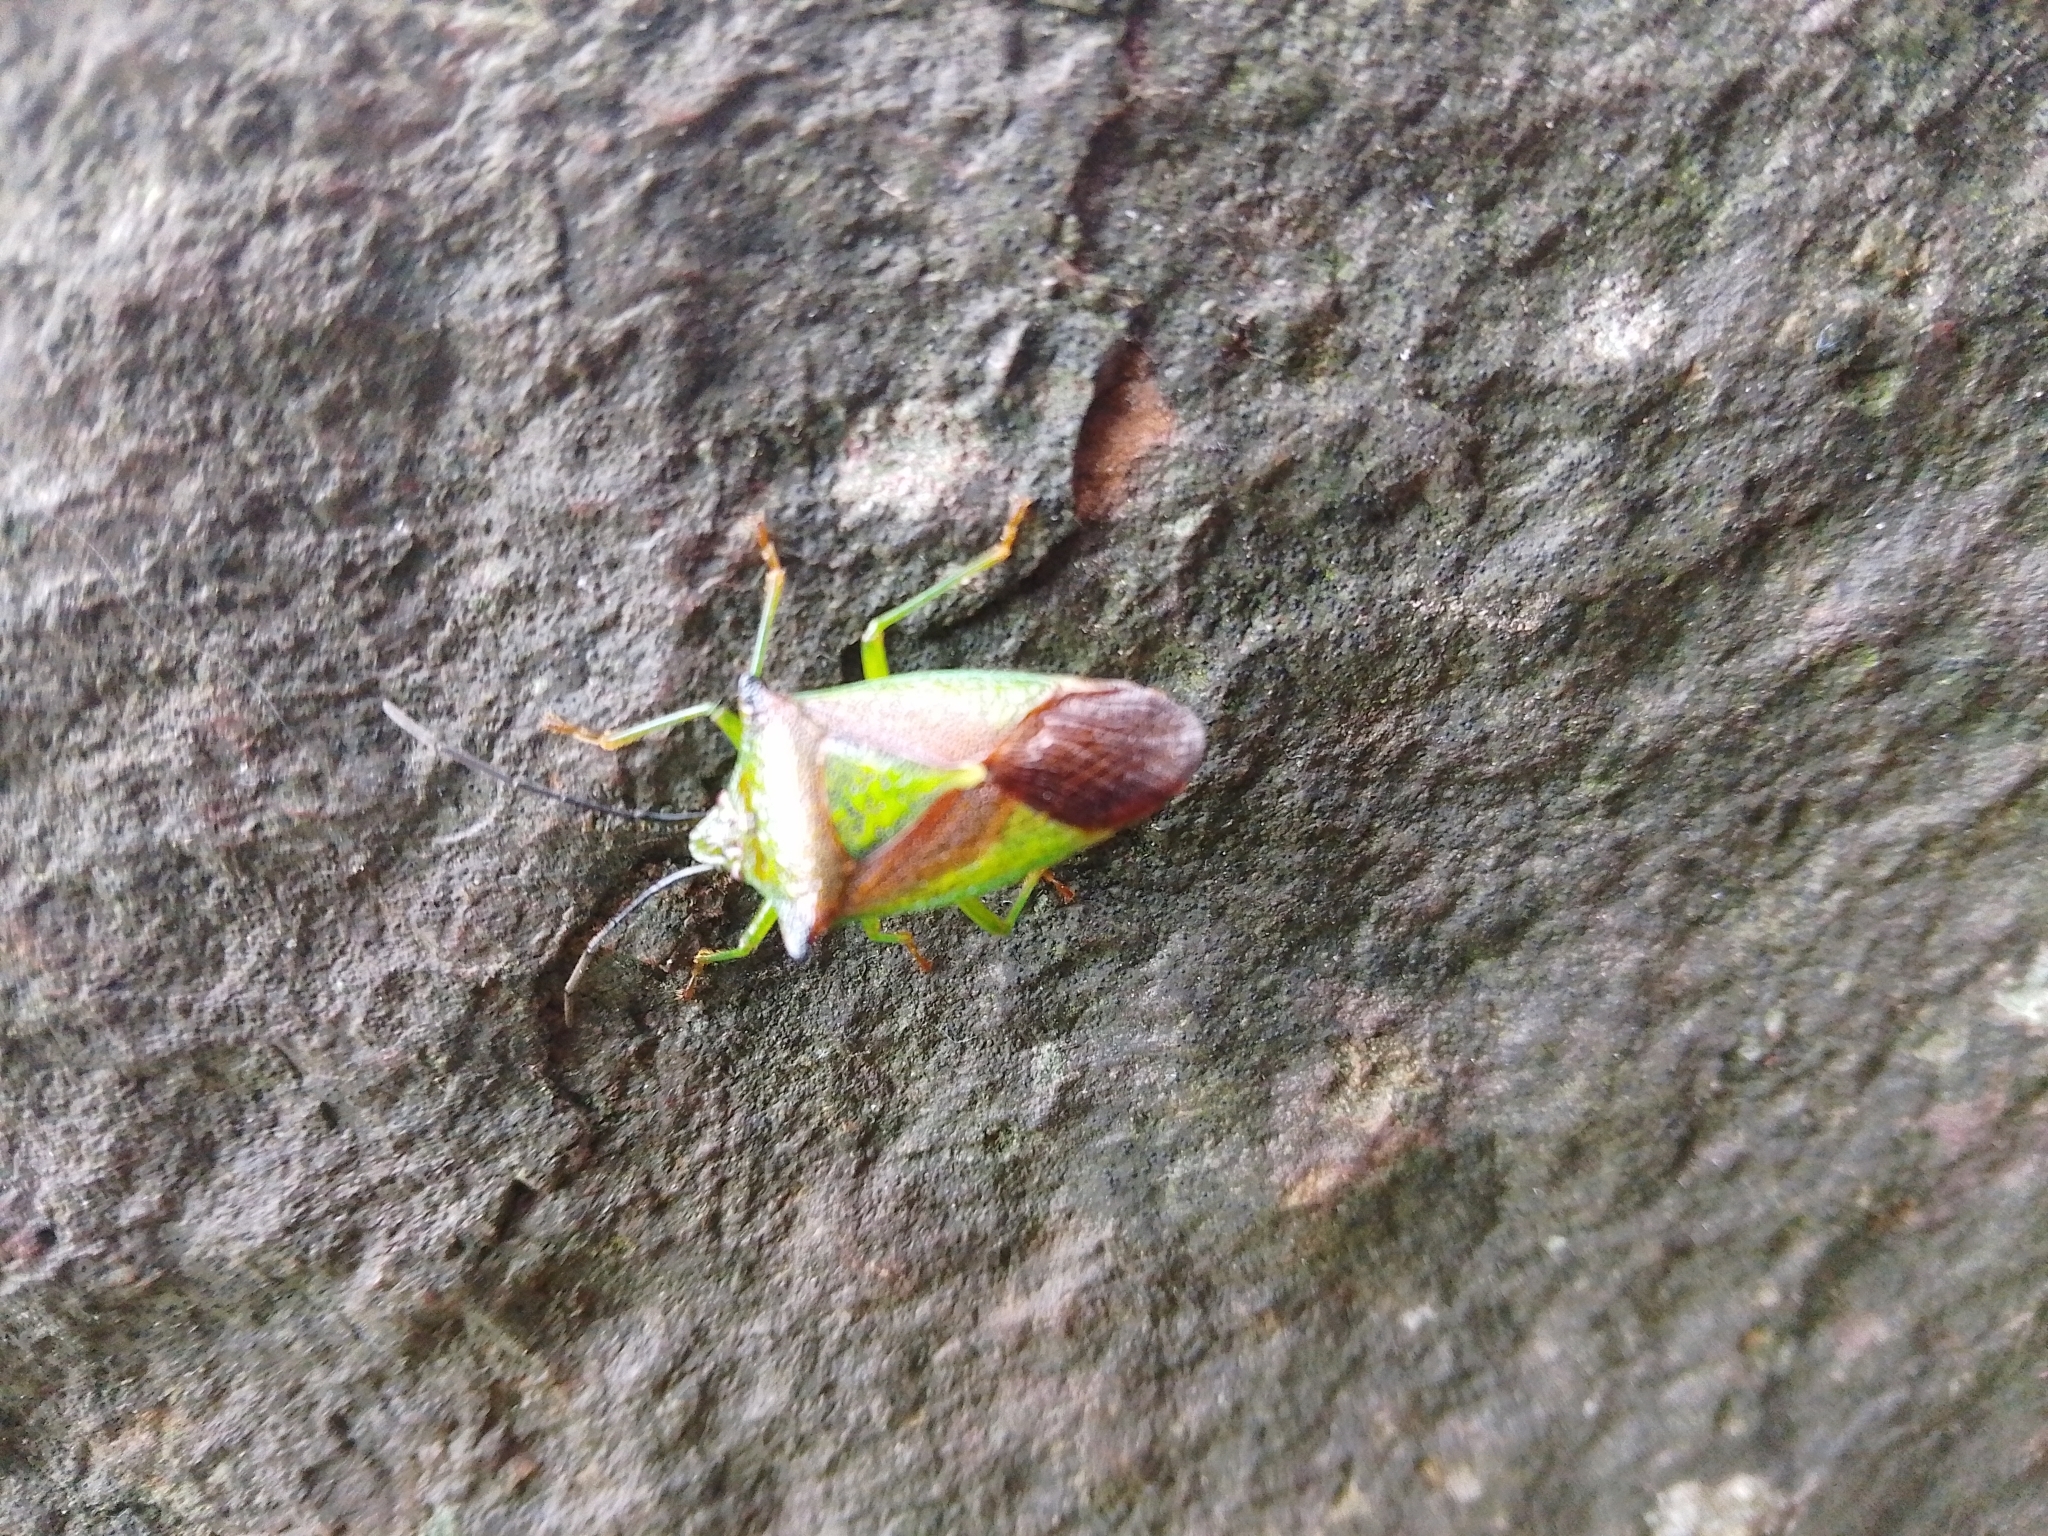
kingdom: Animalia
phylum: Arthropoda
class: Insecta
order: Hemiptera
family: Acanthosomatidae
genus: Acanthosoma
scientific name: Acanthosoma haemorrhoidale
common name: Hawthorn shieldbug
